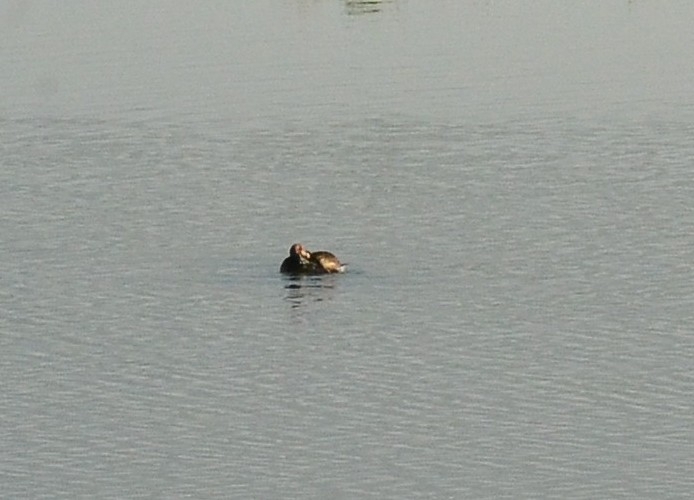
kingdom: Animalia
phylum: Chordata
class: Aves
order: Podicipediformes
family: Podicipedidae
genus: Tachybaptus
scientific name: Tachybaptus ruficollis
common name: Little grebe
